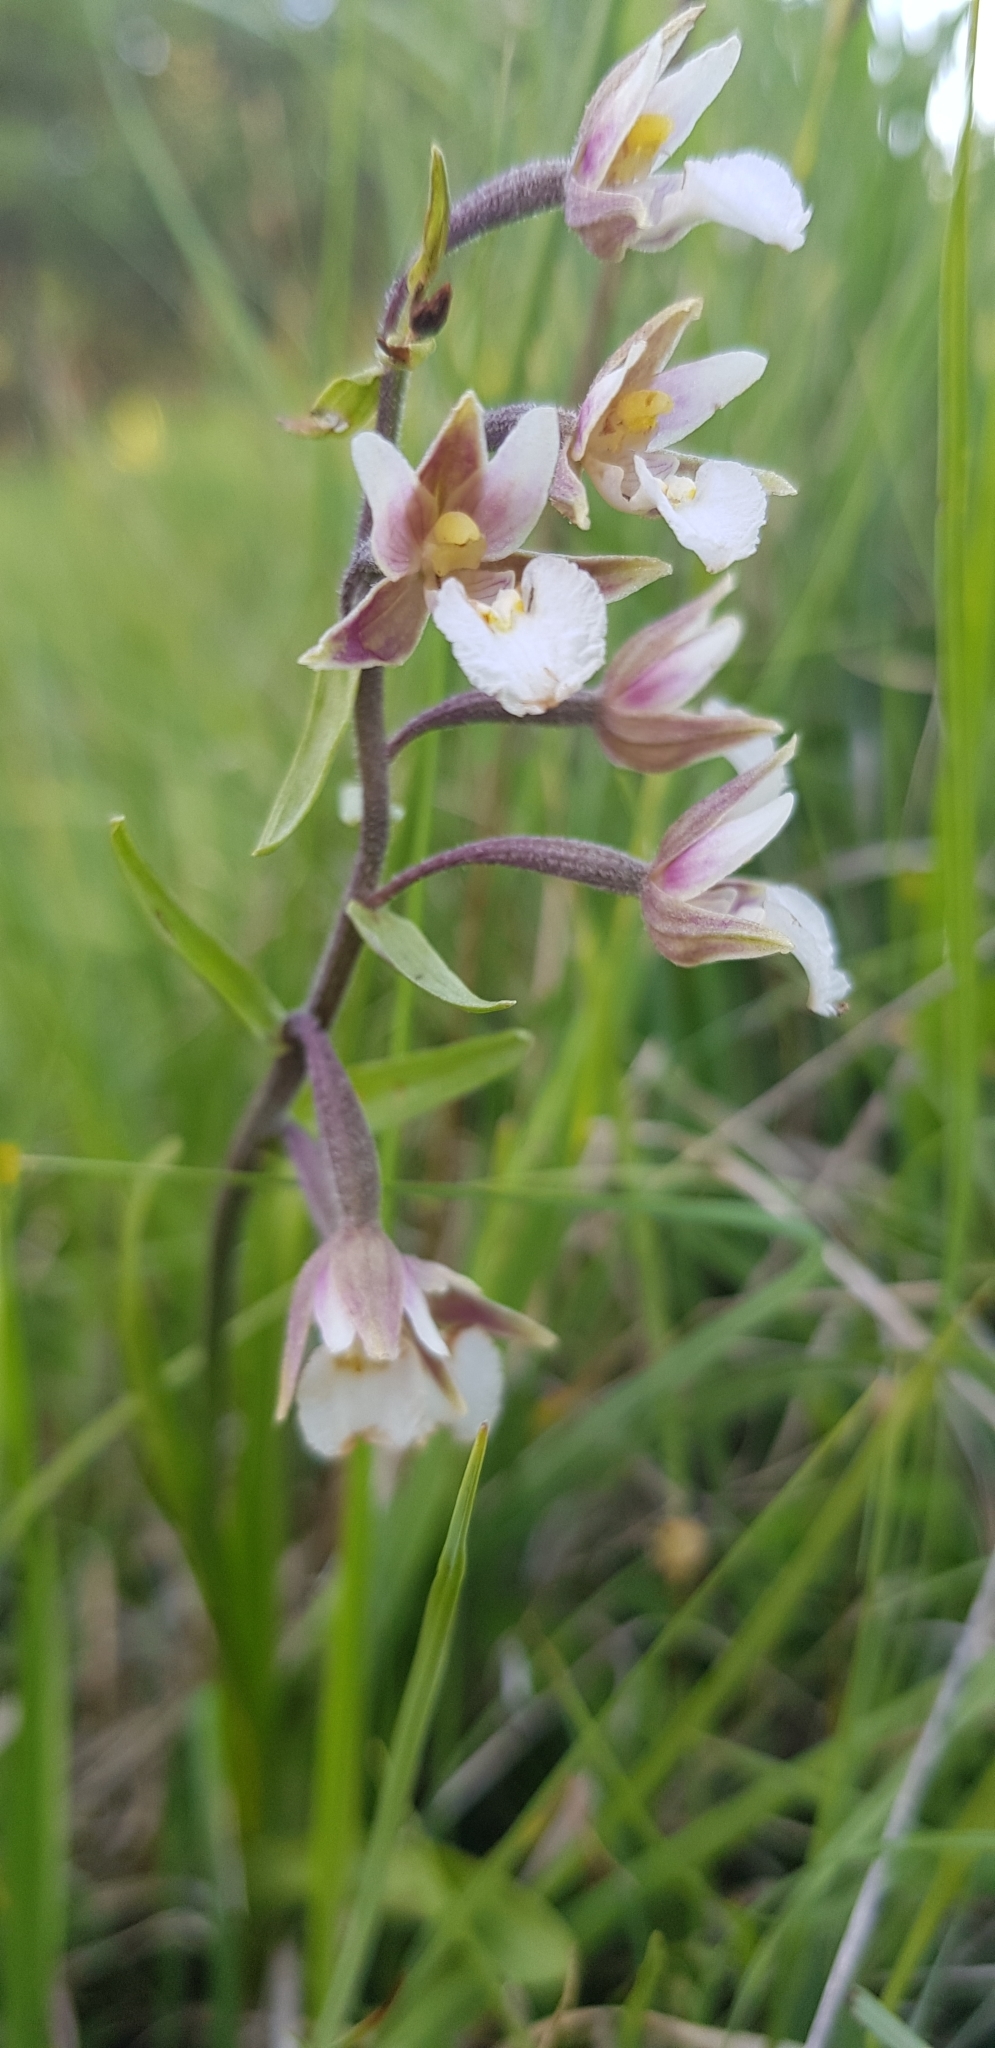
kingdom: Plantae
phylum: Tracheophyta
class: Liliopsida
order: Asparagales
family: Orchidaceae
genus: Epipactis
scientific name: Epipactis palustris
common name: Marsh helleborine
